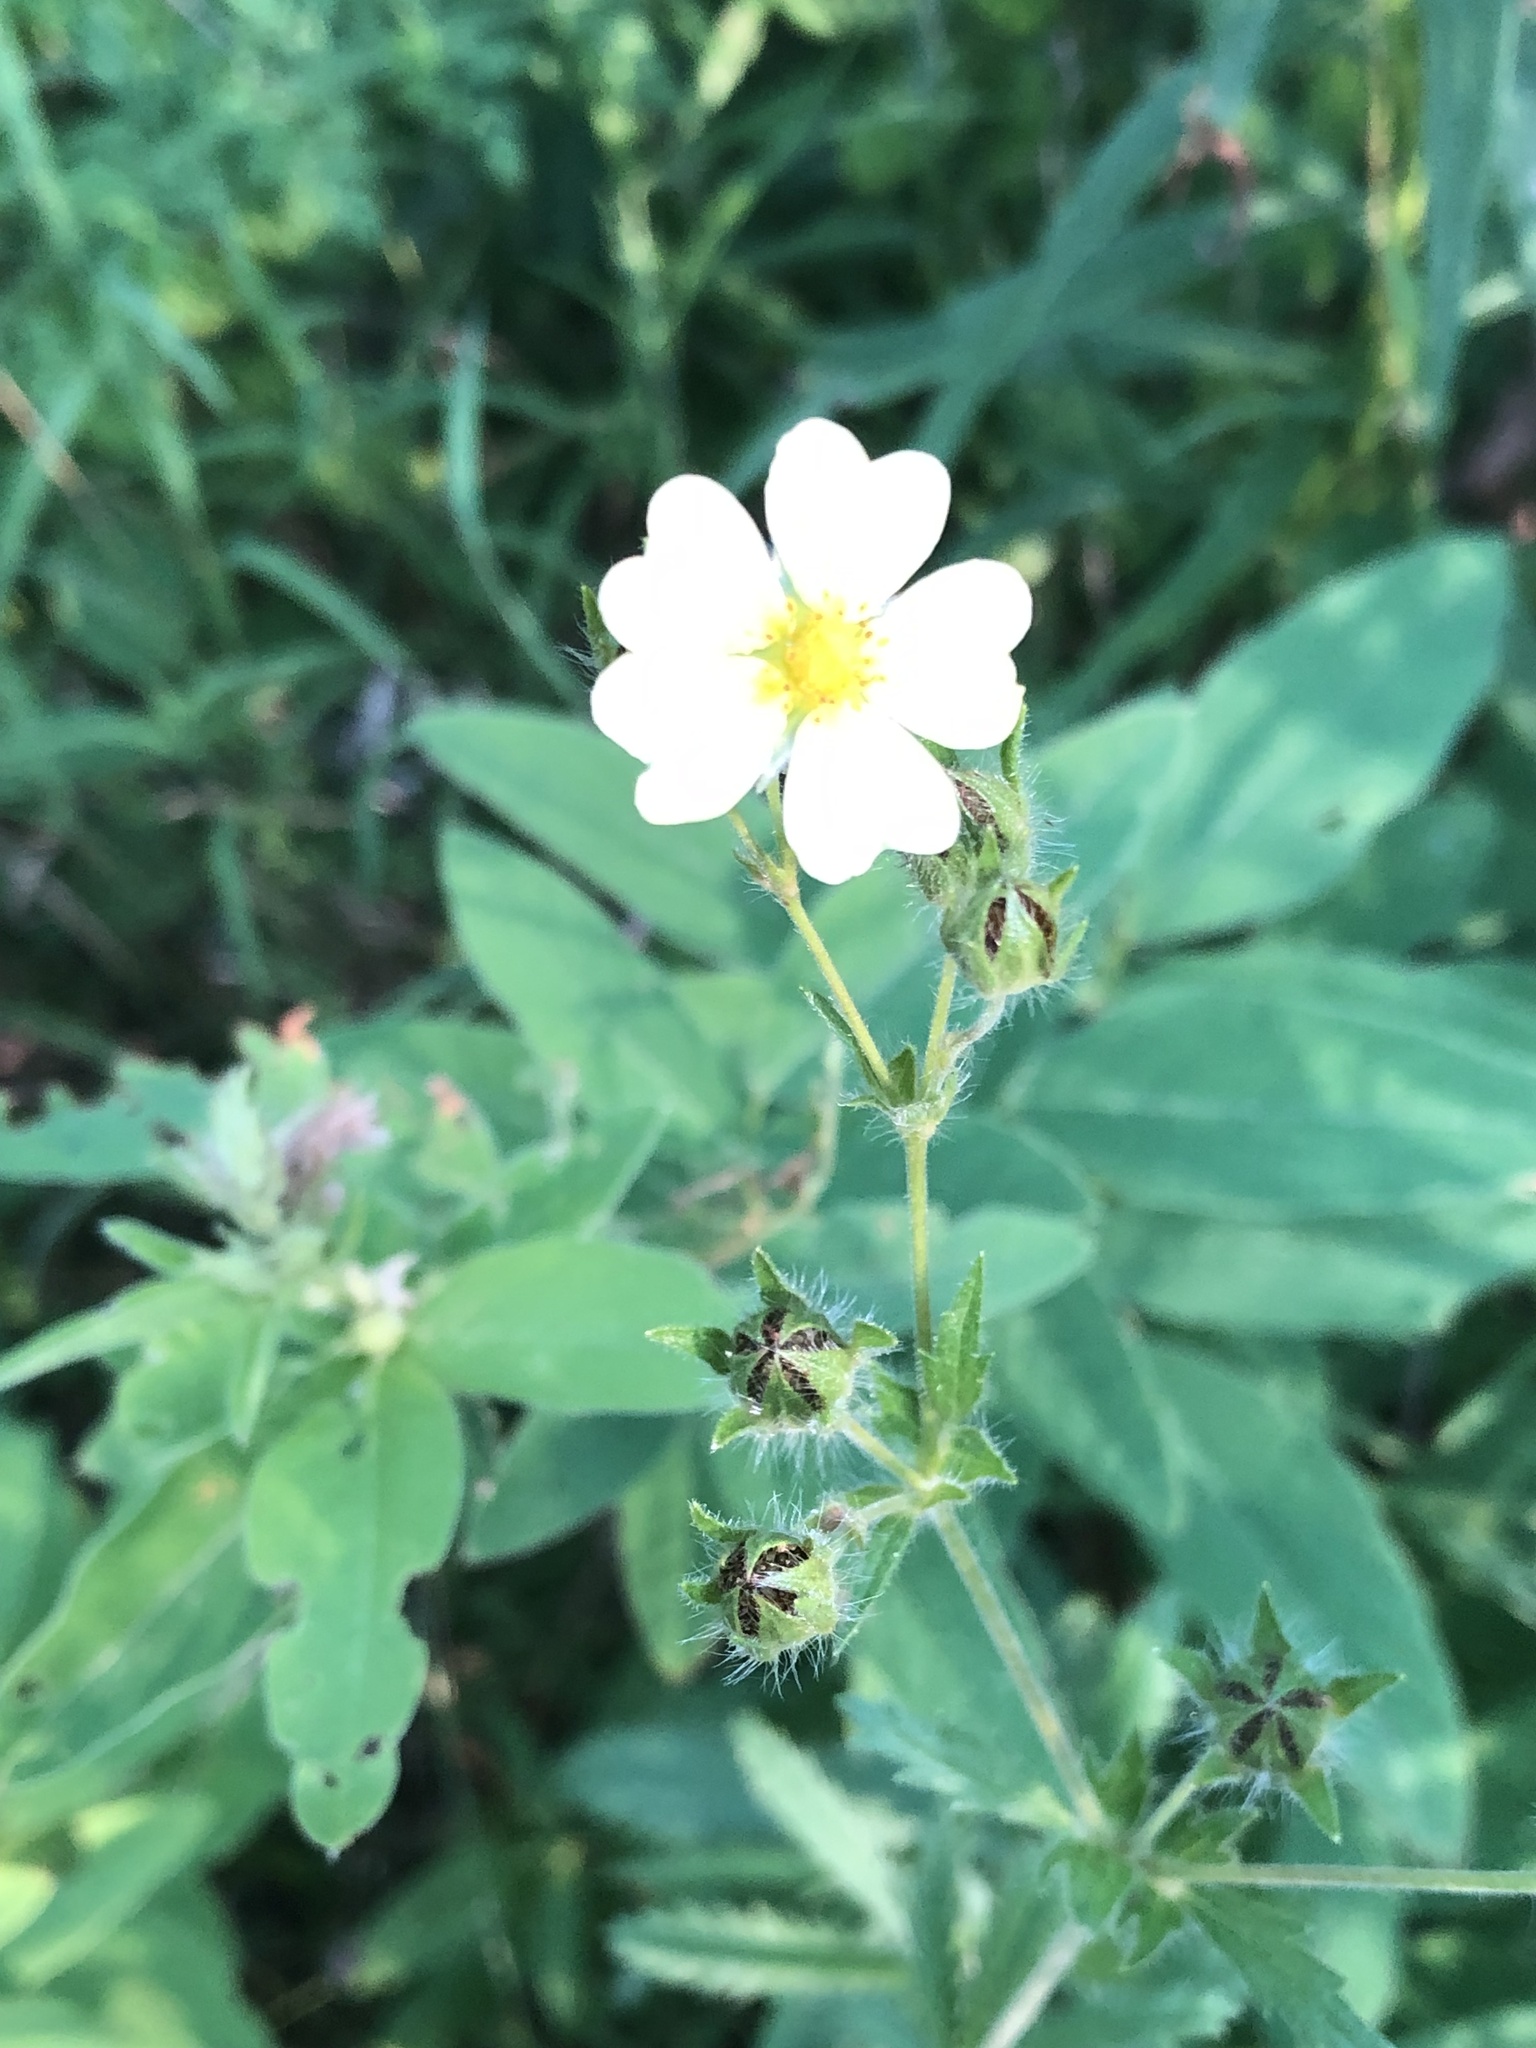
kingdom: Plantae
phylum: Tracheophyta
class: Magnoliopsida
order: Rosales
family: Rosaceae
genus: Potentilla
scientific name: Potentilla recta
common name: Sulphur cinquefoil
